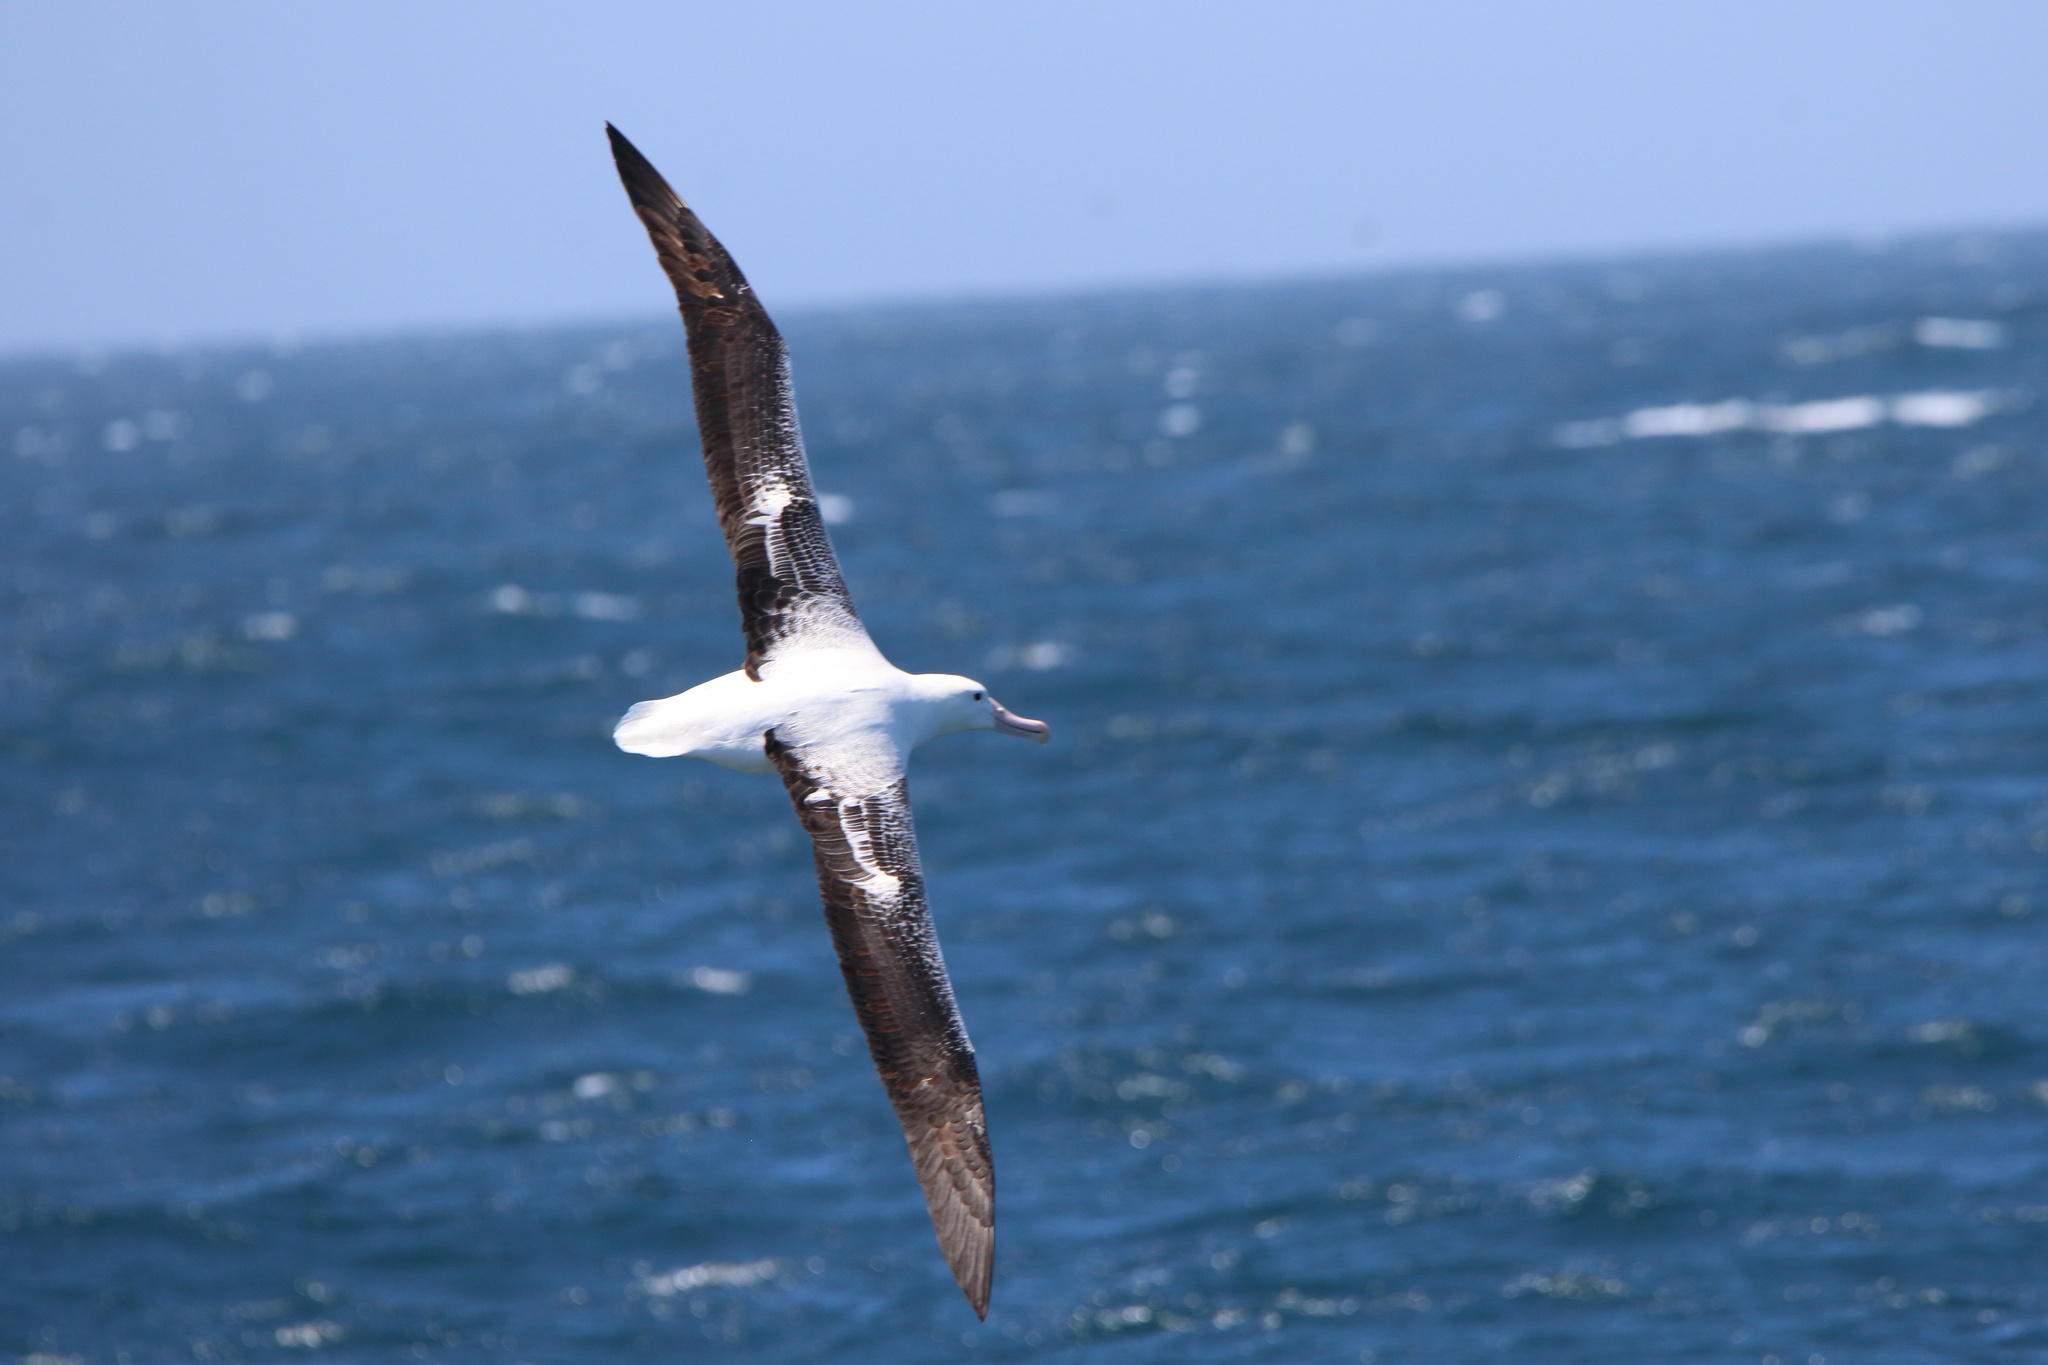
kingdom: Animalia
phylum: Chordata
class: Aves
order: Procellariiformes
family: Diomedeidae
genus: Diomedea
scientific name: Diomedea epomophora
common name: Southern royal albatross
